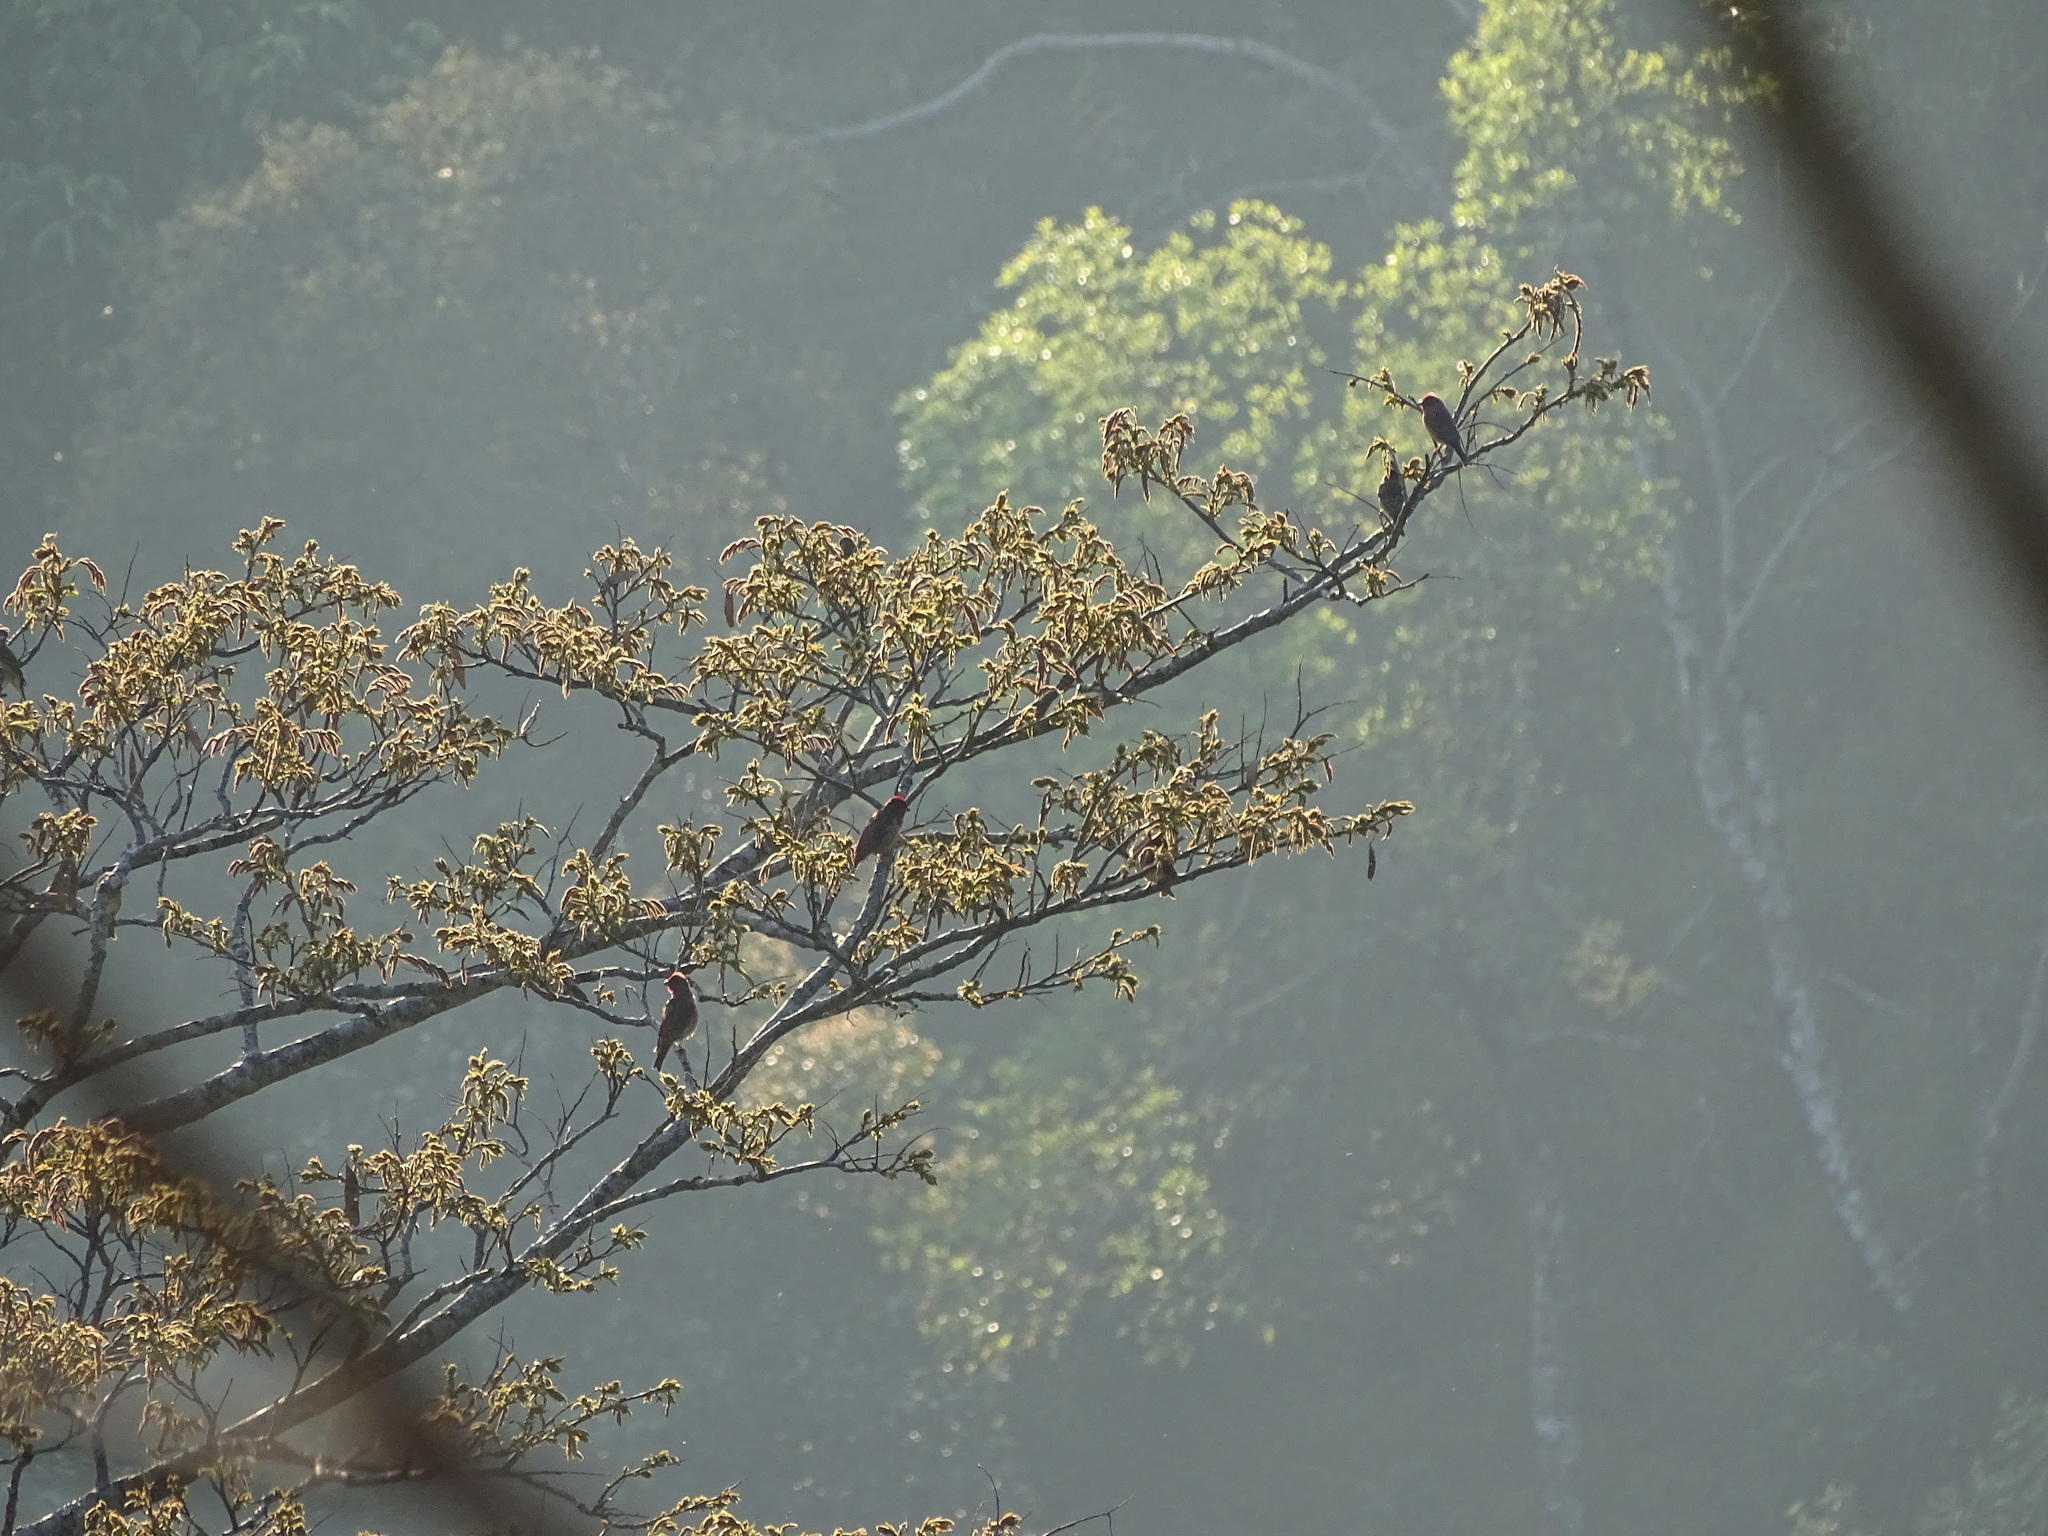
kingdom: Animalia
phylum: Chordata
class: Aves
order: Passeriformes
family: Fringillidae
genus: Carpodacus
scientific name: Carpodacus erythrinus
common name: Common rosefinch
